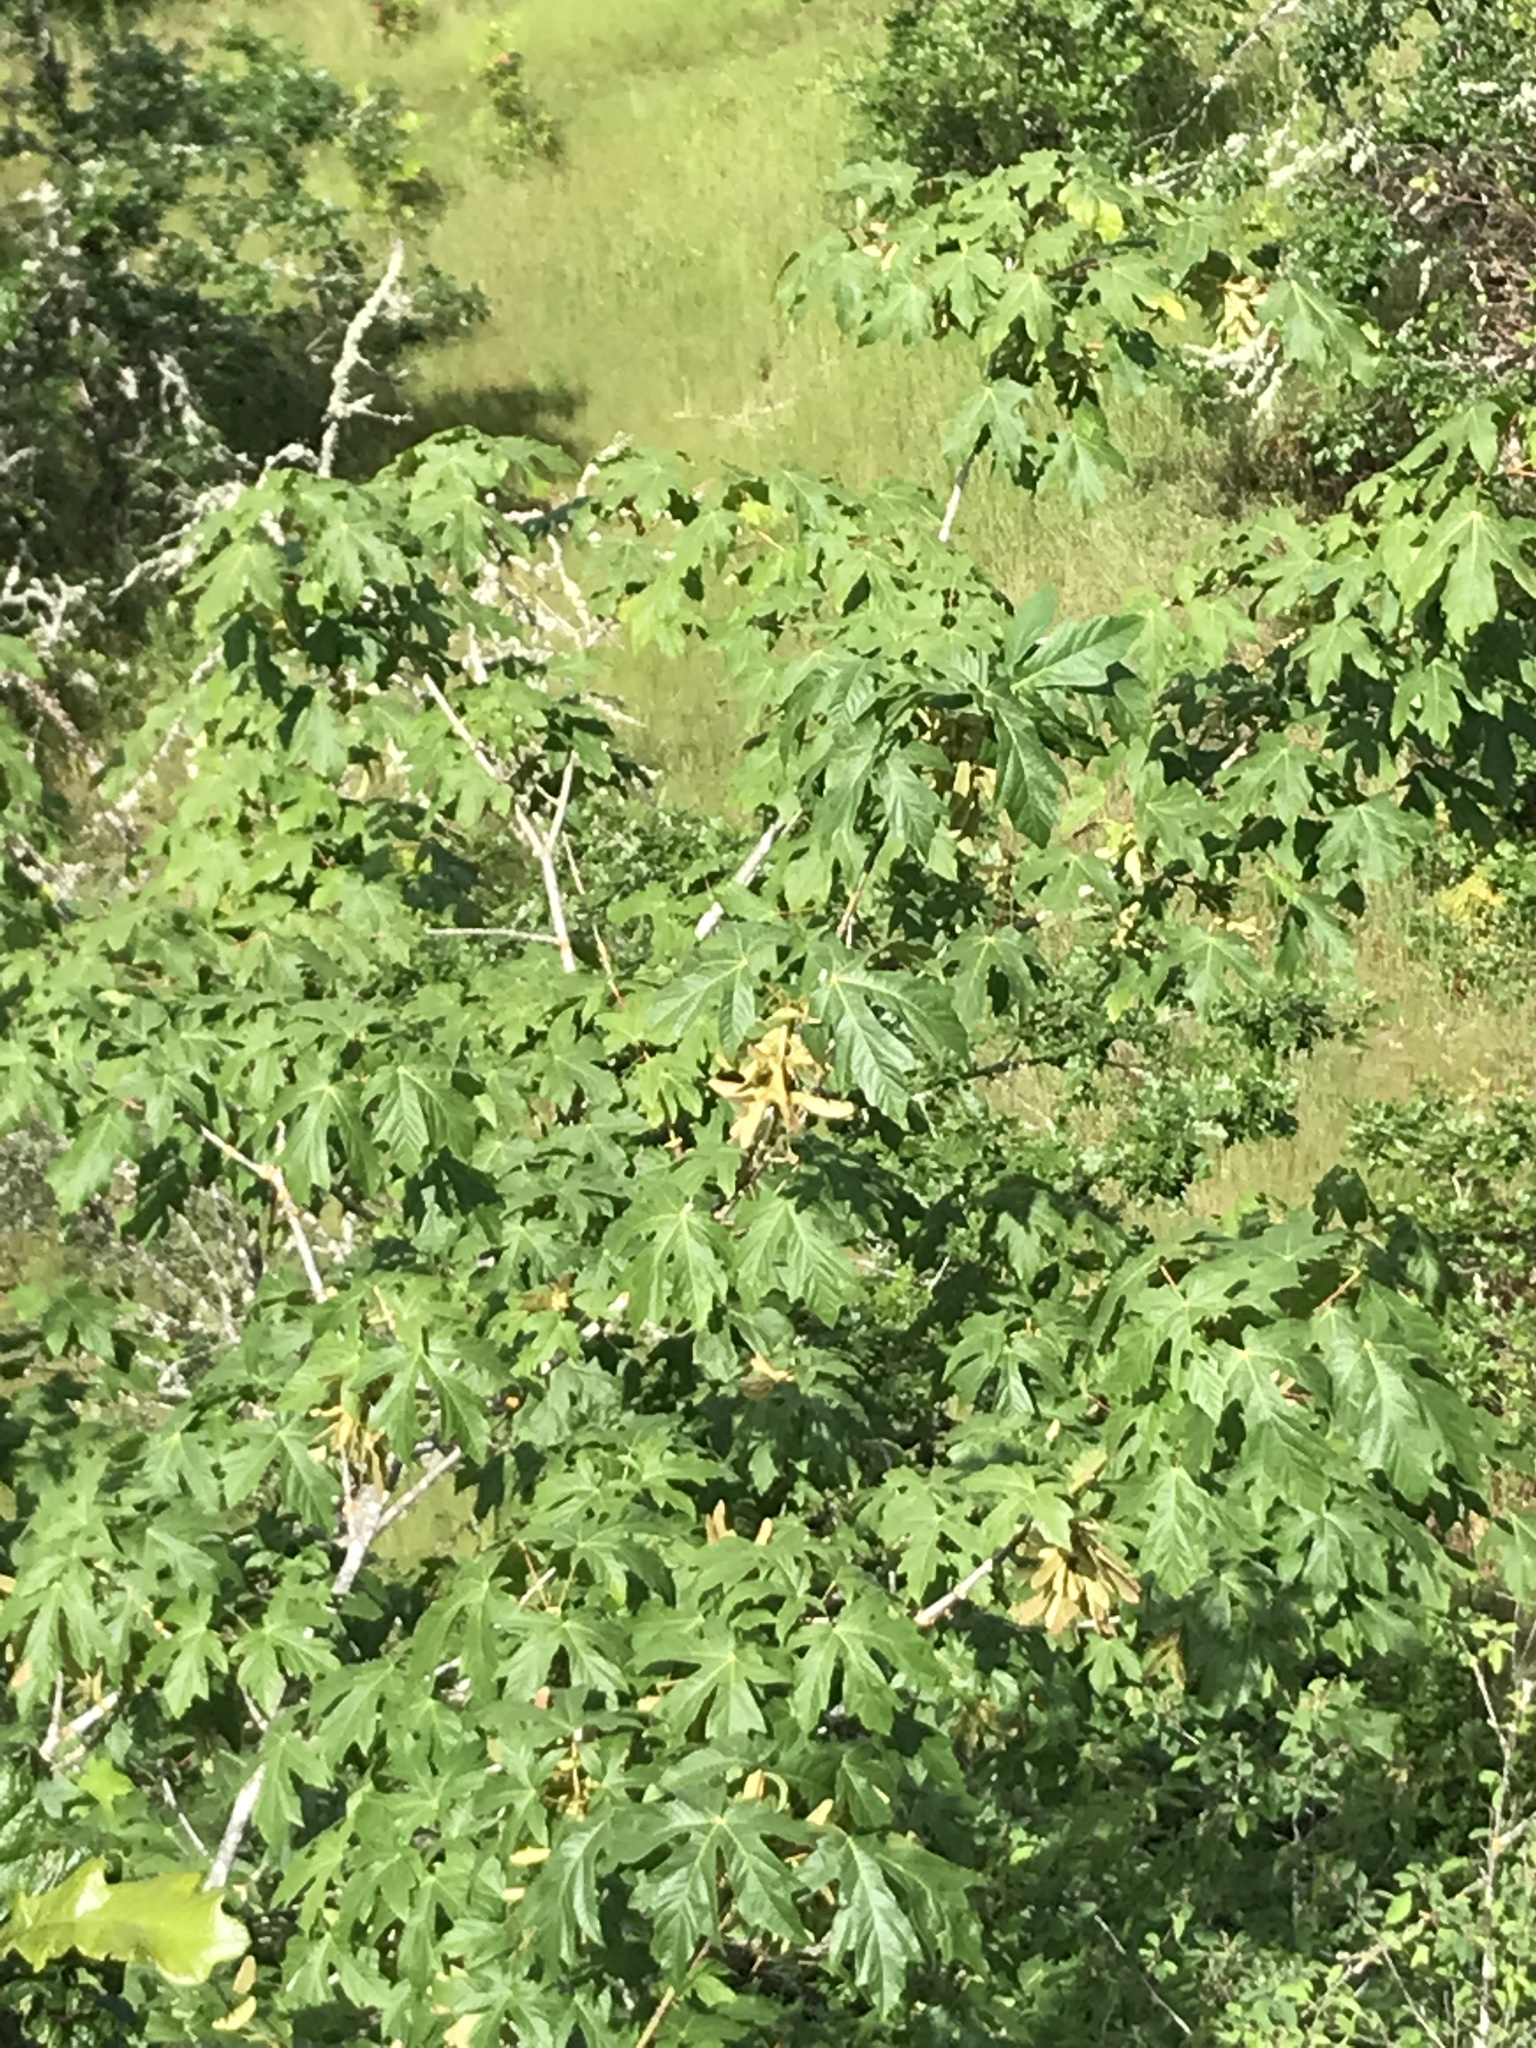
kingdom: Plantae
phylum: Tracheophyta
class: Magnoliopsida
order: Sapindales
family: Sapindaceae
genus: Acer
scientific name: Acer macrophyllum
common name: Oregon maple
